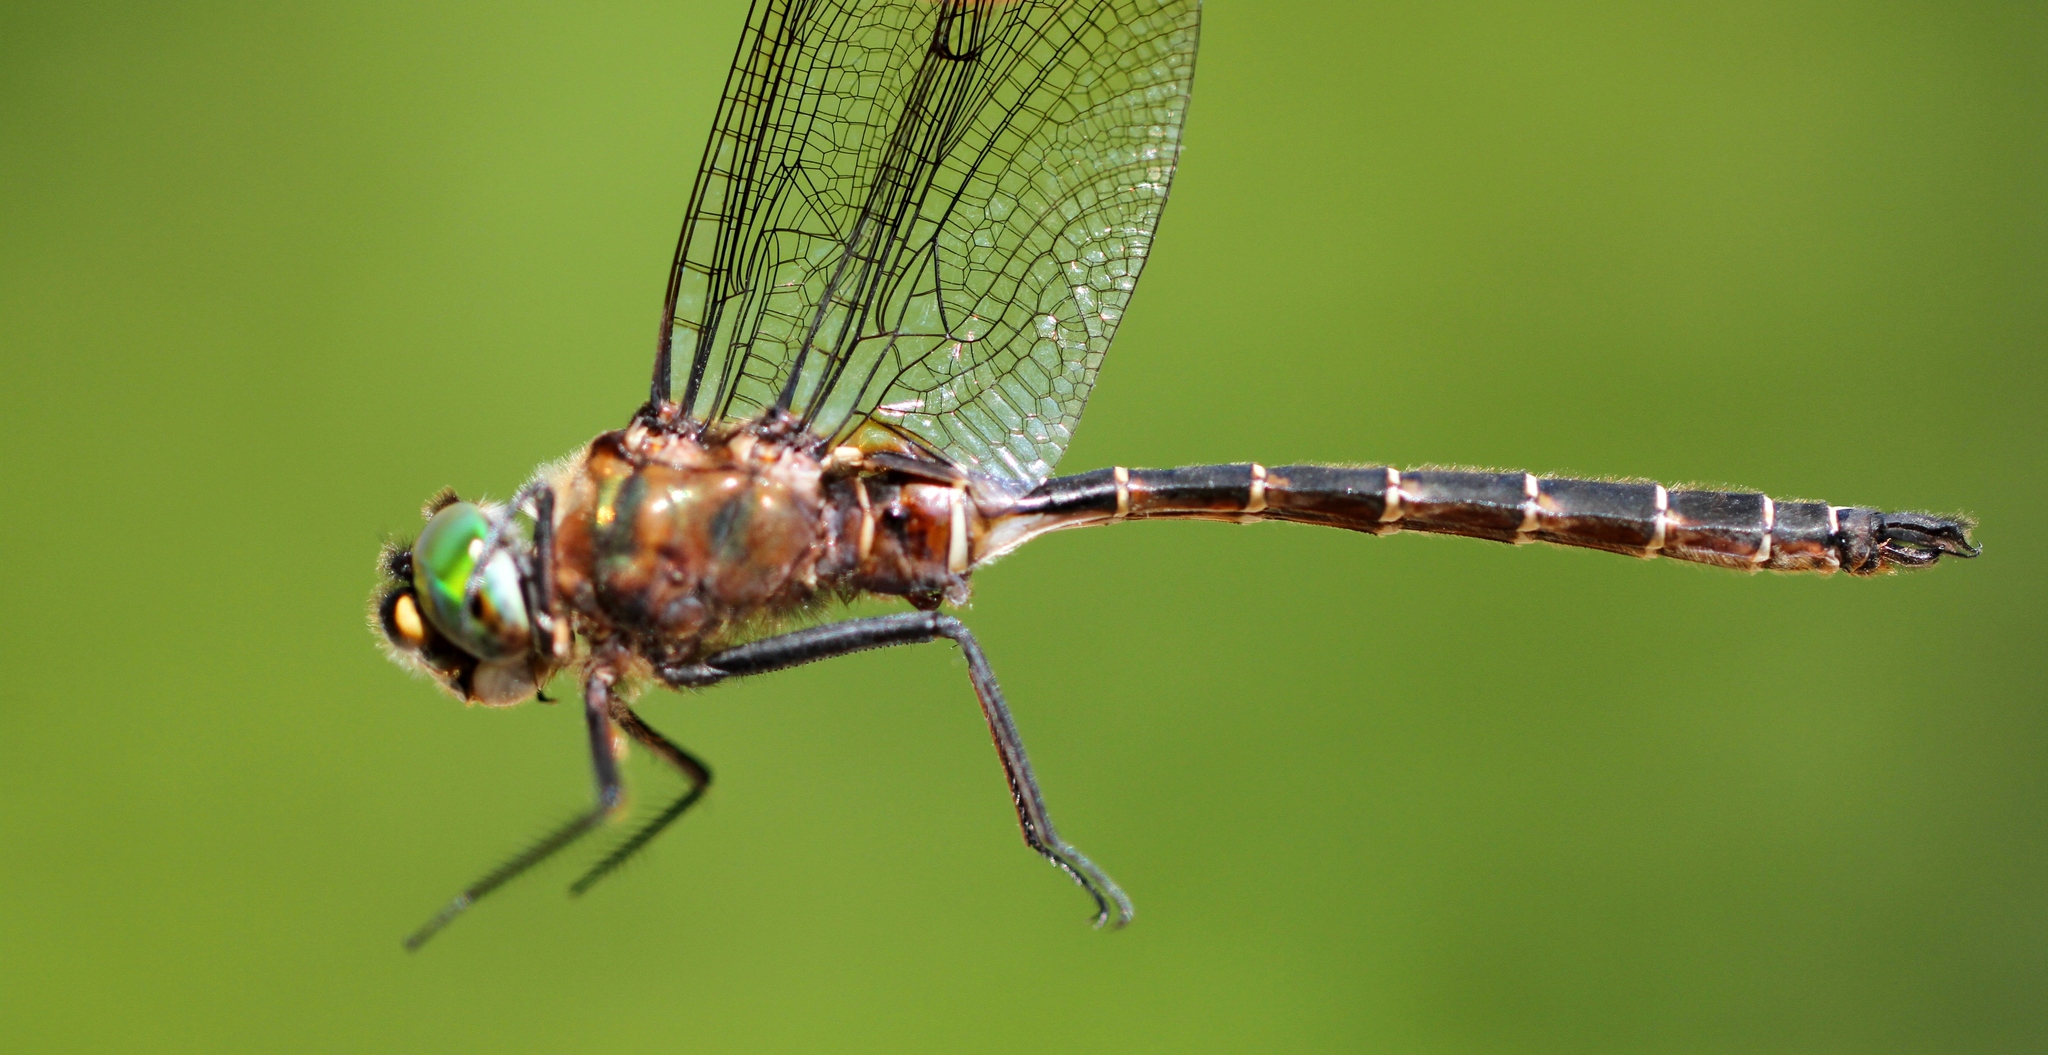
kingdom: Animalia
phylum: Arthropoda
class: Insecta
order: Odonata
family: Corduliidae
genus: Somatochlora
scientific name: Somatochlora cingulata
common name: Lake emerald
